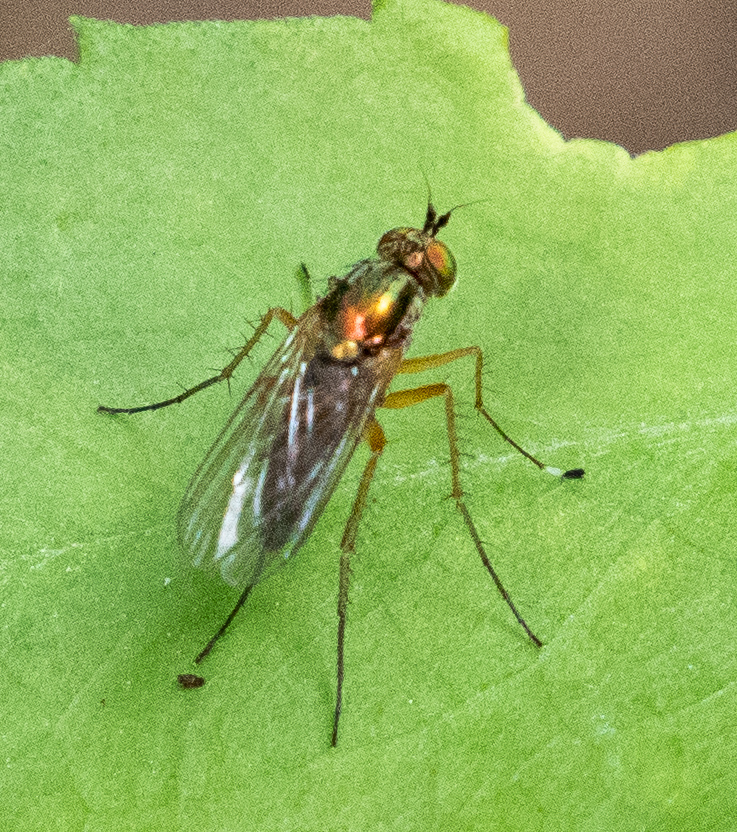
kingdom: Animalia
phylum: Arthropoda
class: Insecta
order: Diptera
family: Dolichopodidae
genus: Dolichopus
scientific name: Dolichopus eudactylus
